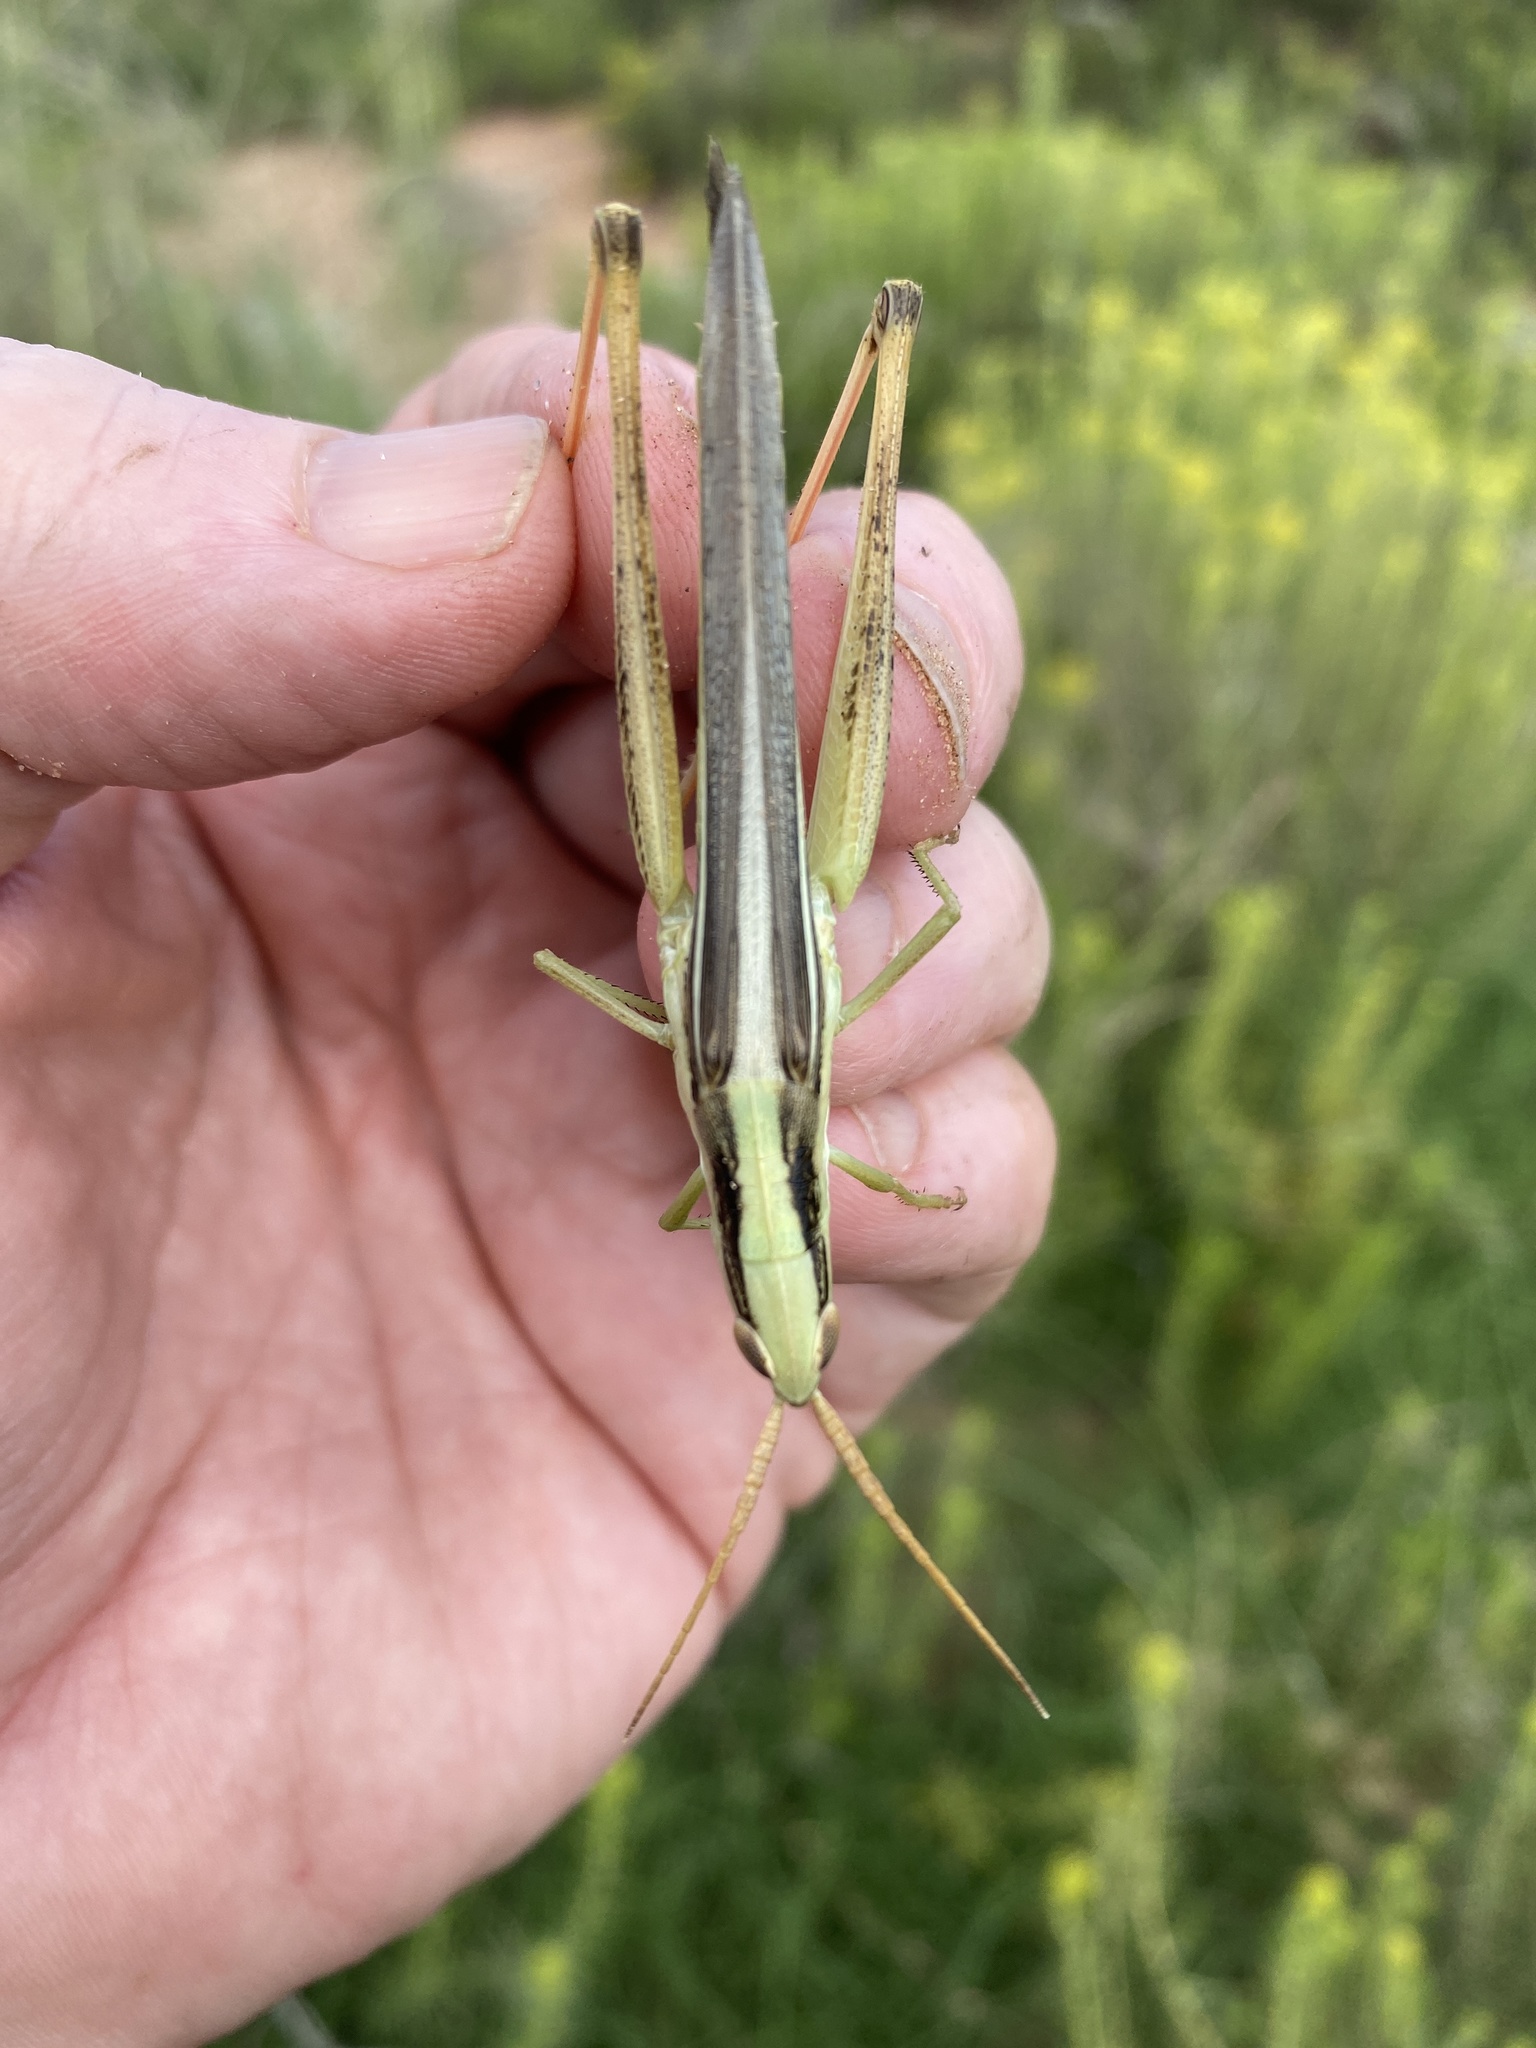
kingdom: Animalia
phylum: Arthropoda
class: Insecta
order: Orthoptera
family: Acrididae
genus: Mermiria
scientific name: Mermiria bivittata
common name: Two-striped mermiria grasshopper
